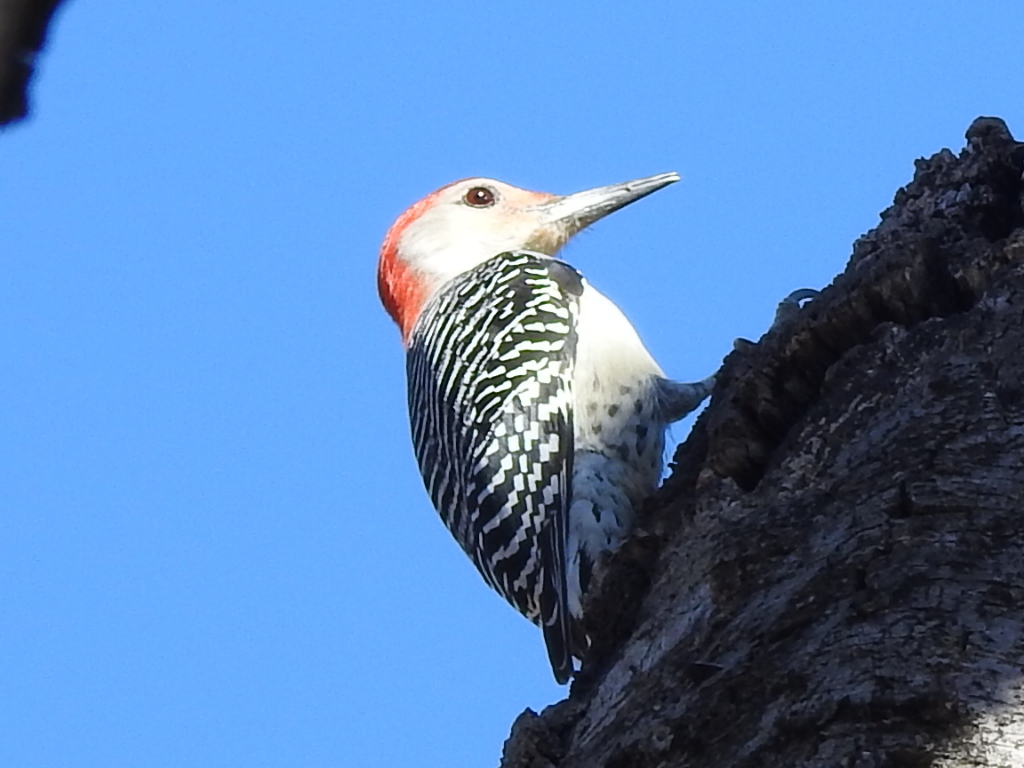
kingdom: Animalia
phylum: Chordata
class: Aves
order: Piciformes
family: Picidae
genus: Melanerpes
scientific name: Melanerpes carolinus
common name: Red-bellied woodpecker
